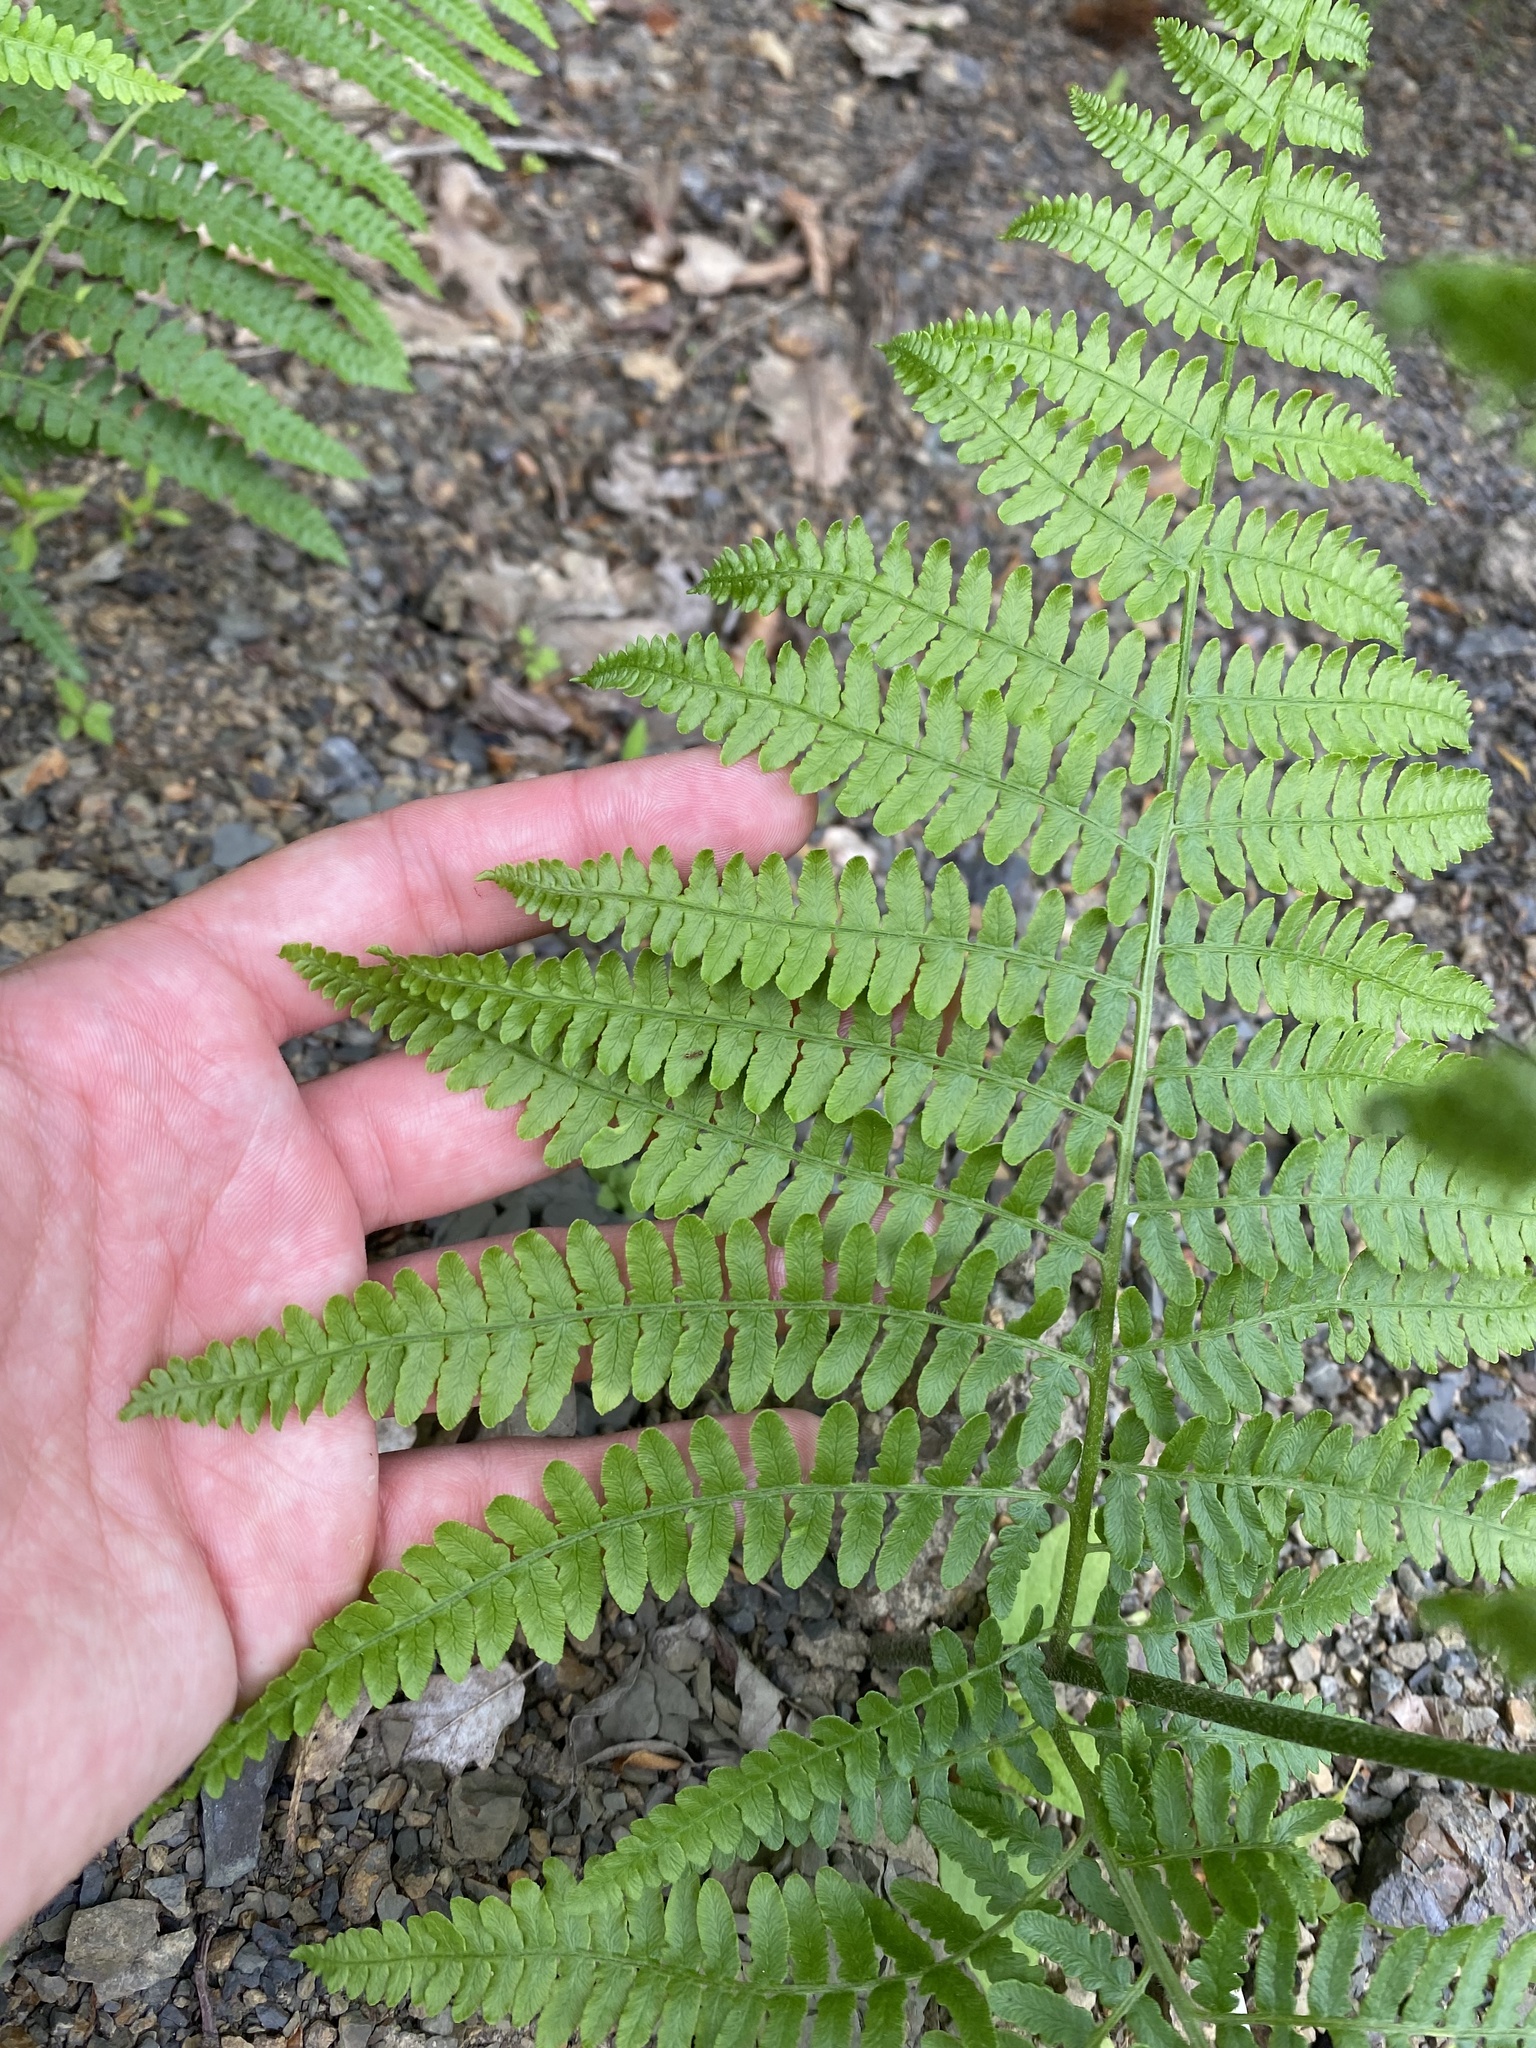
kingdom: Plantae
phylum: Tracheophyta
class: Polypodiopsida
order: Polypodiales
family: Dennstaedtiaceae
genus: Pteridium
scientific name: Pteridium tauricum
